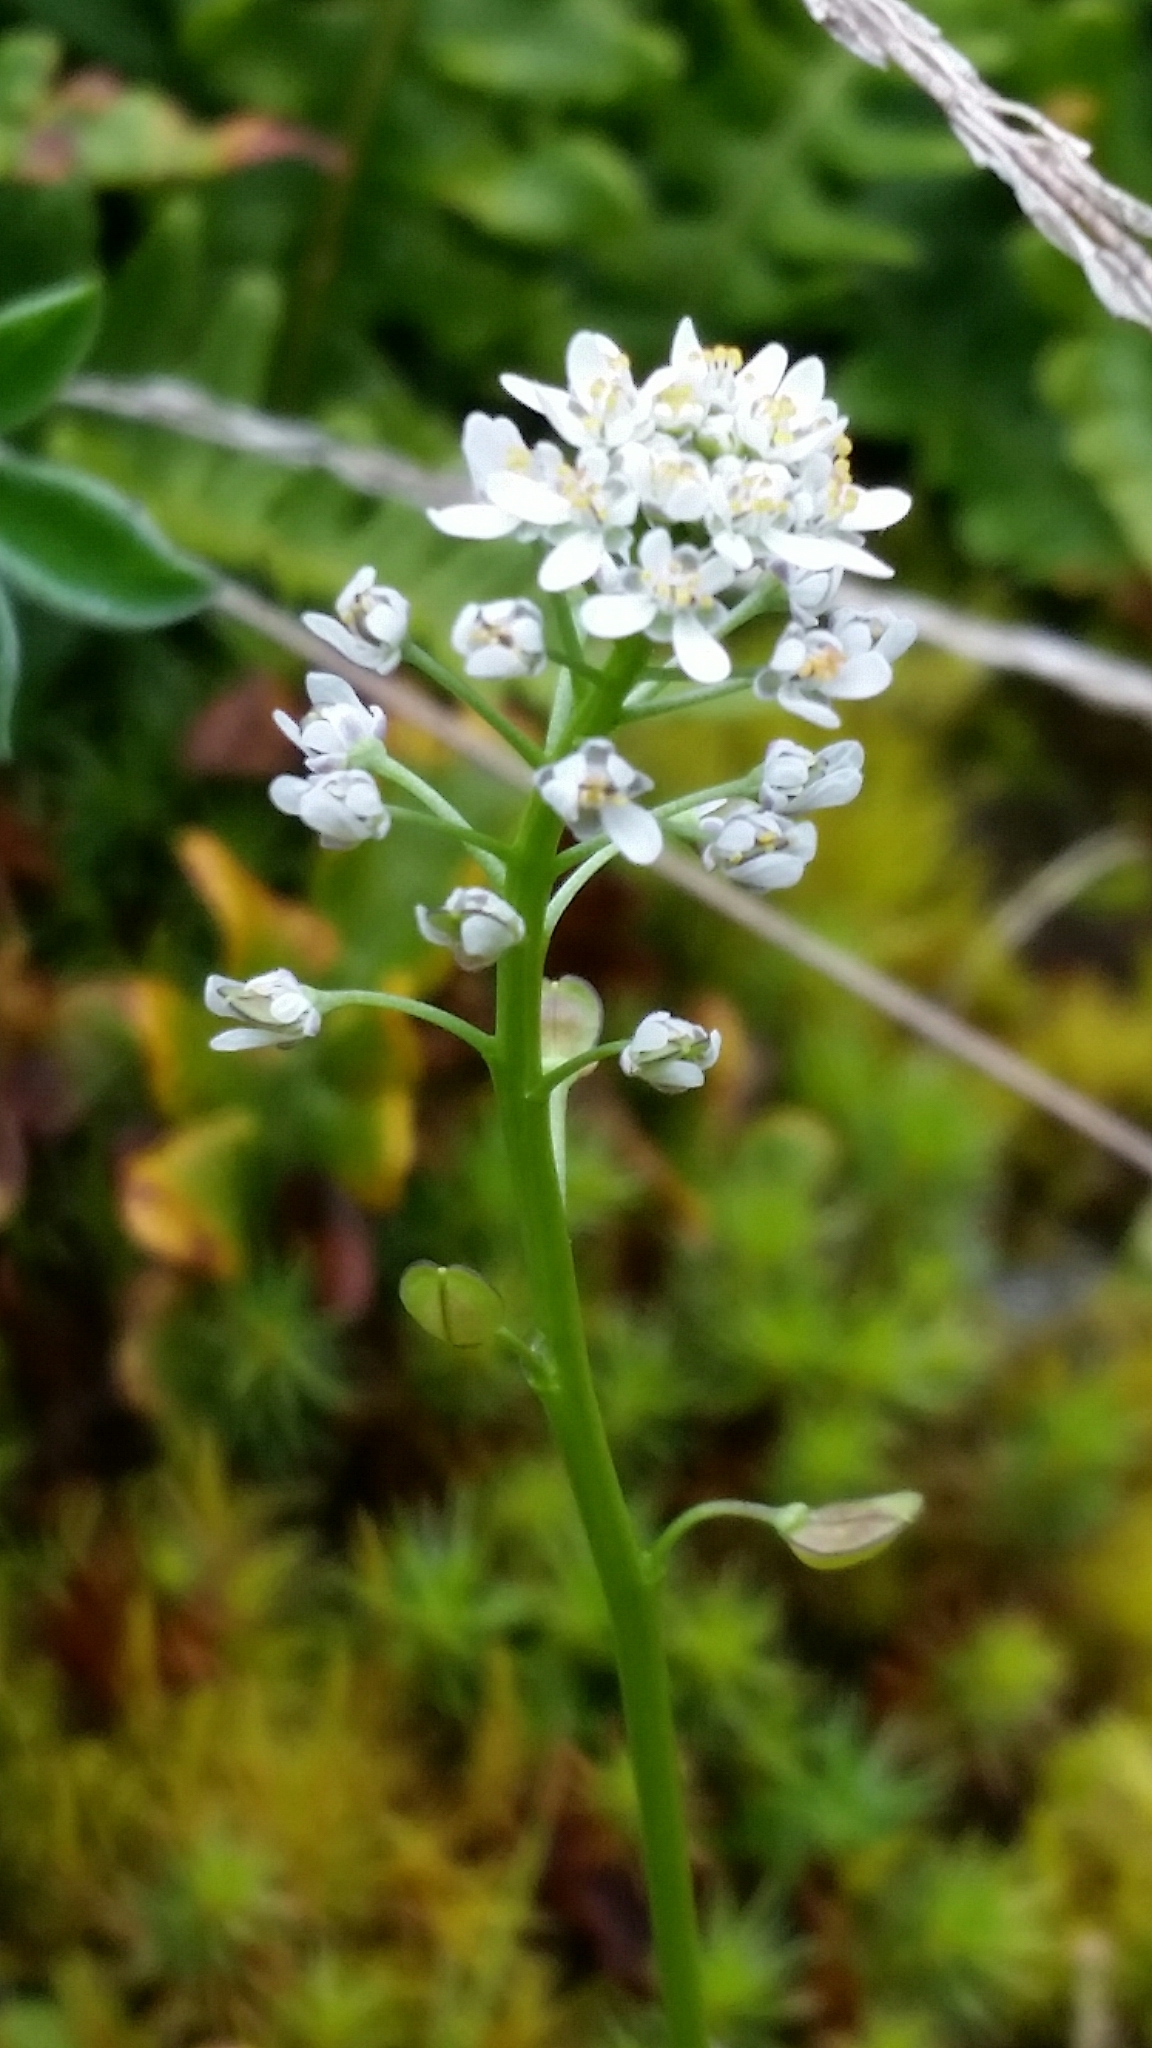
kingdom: Plantae
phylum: Tracheophyta
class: Magnoliopsida
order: Brassicales
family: Brassicaceae
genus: Teesdalia
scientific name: Teesdalia nudicaulis
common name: Shepherd's cress
